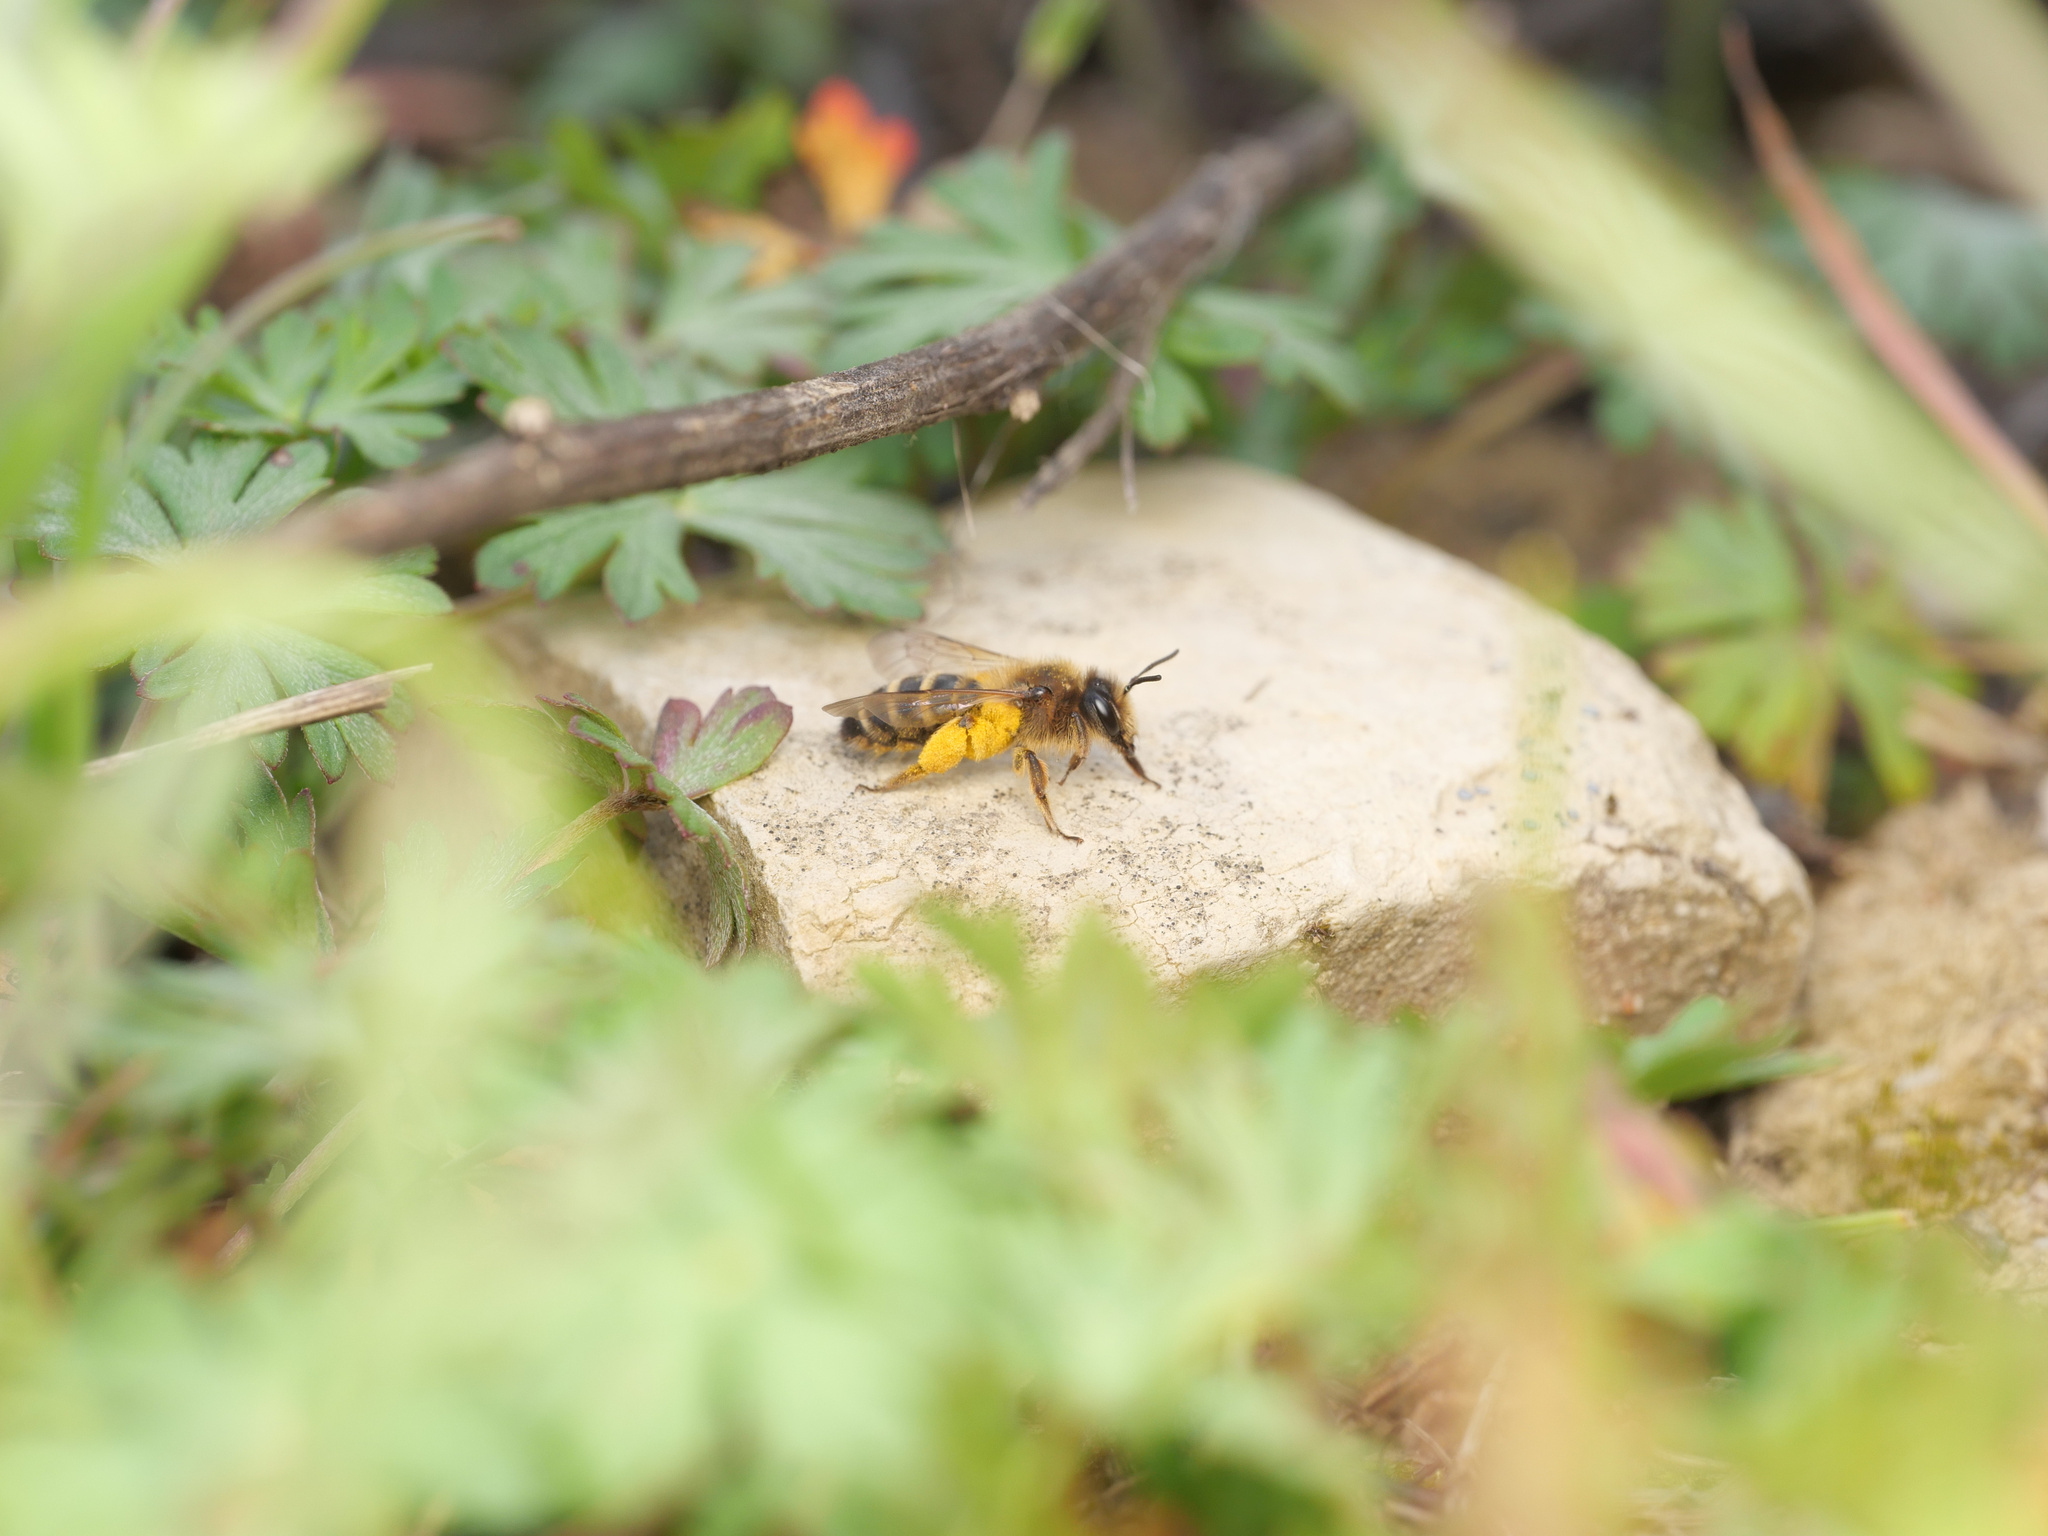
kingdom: Animalia
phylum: Arthropoda
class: Insecta
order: Hymenoptera
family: Andrenidae
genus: Andrena
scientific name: Andrena flavipes
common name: Yellow-legged mining bee
